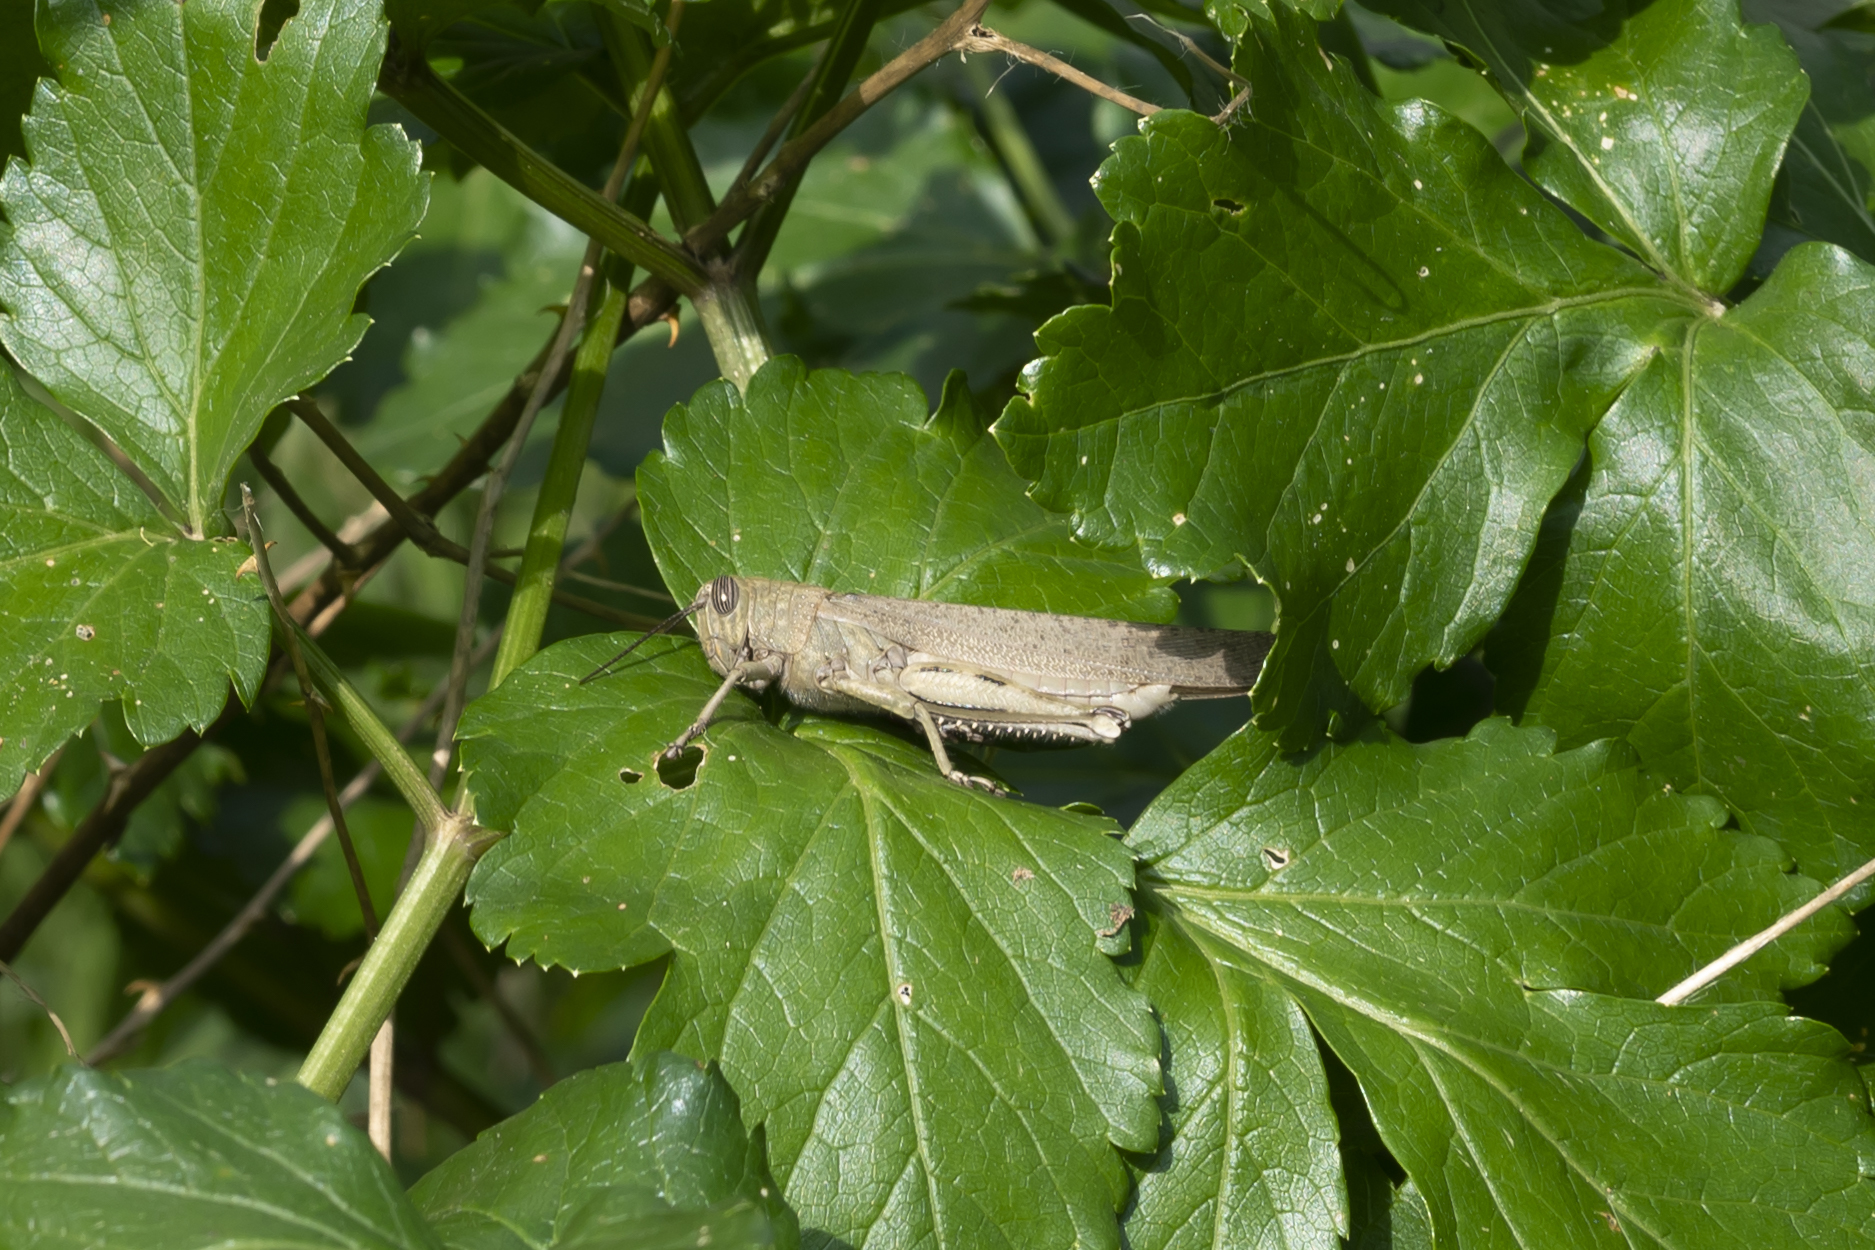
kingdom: Animalia
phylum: Arthropoda
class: Insecta
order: Orthoptera
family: Acrididae
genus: Anacridium
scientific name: Anacridium aegyptium
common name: Egyptian grasshopper
